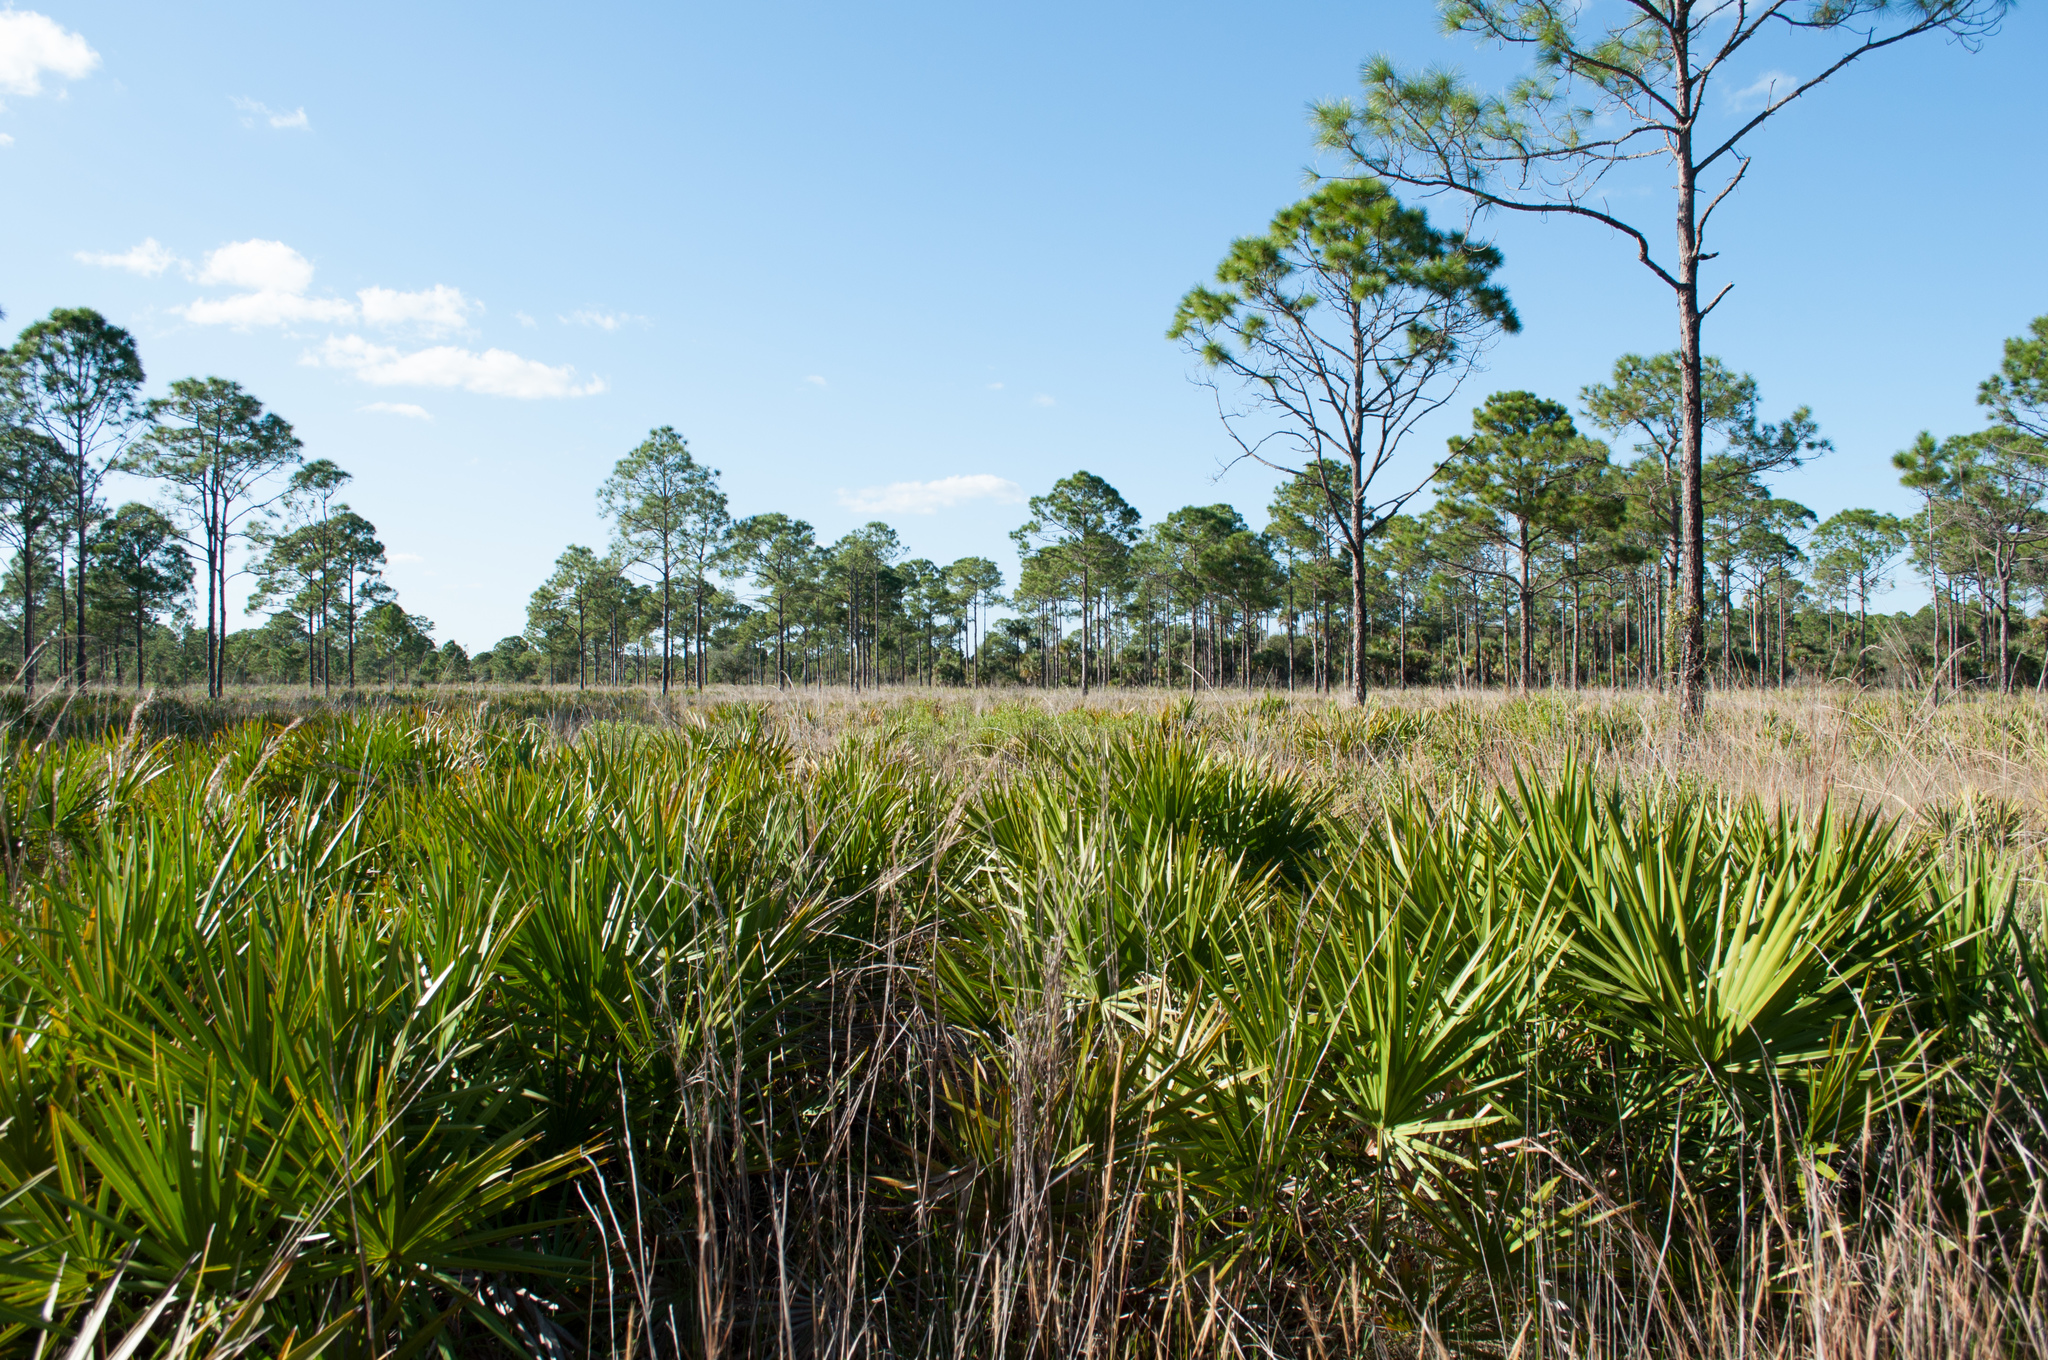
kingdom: Plantae
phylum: Tracheophyta
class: Liliopsida
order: Arecales
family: Arecaceae
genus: Serenoa
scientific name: Serenoa repens
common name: Saw-palmetto
